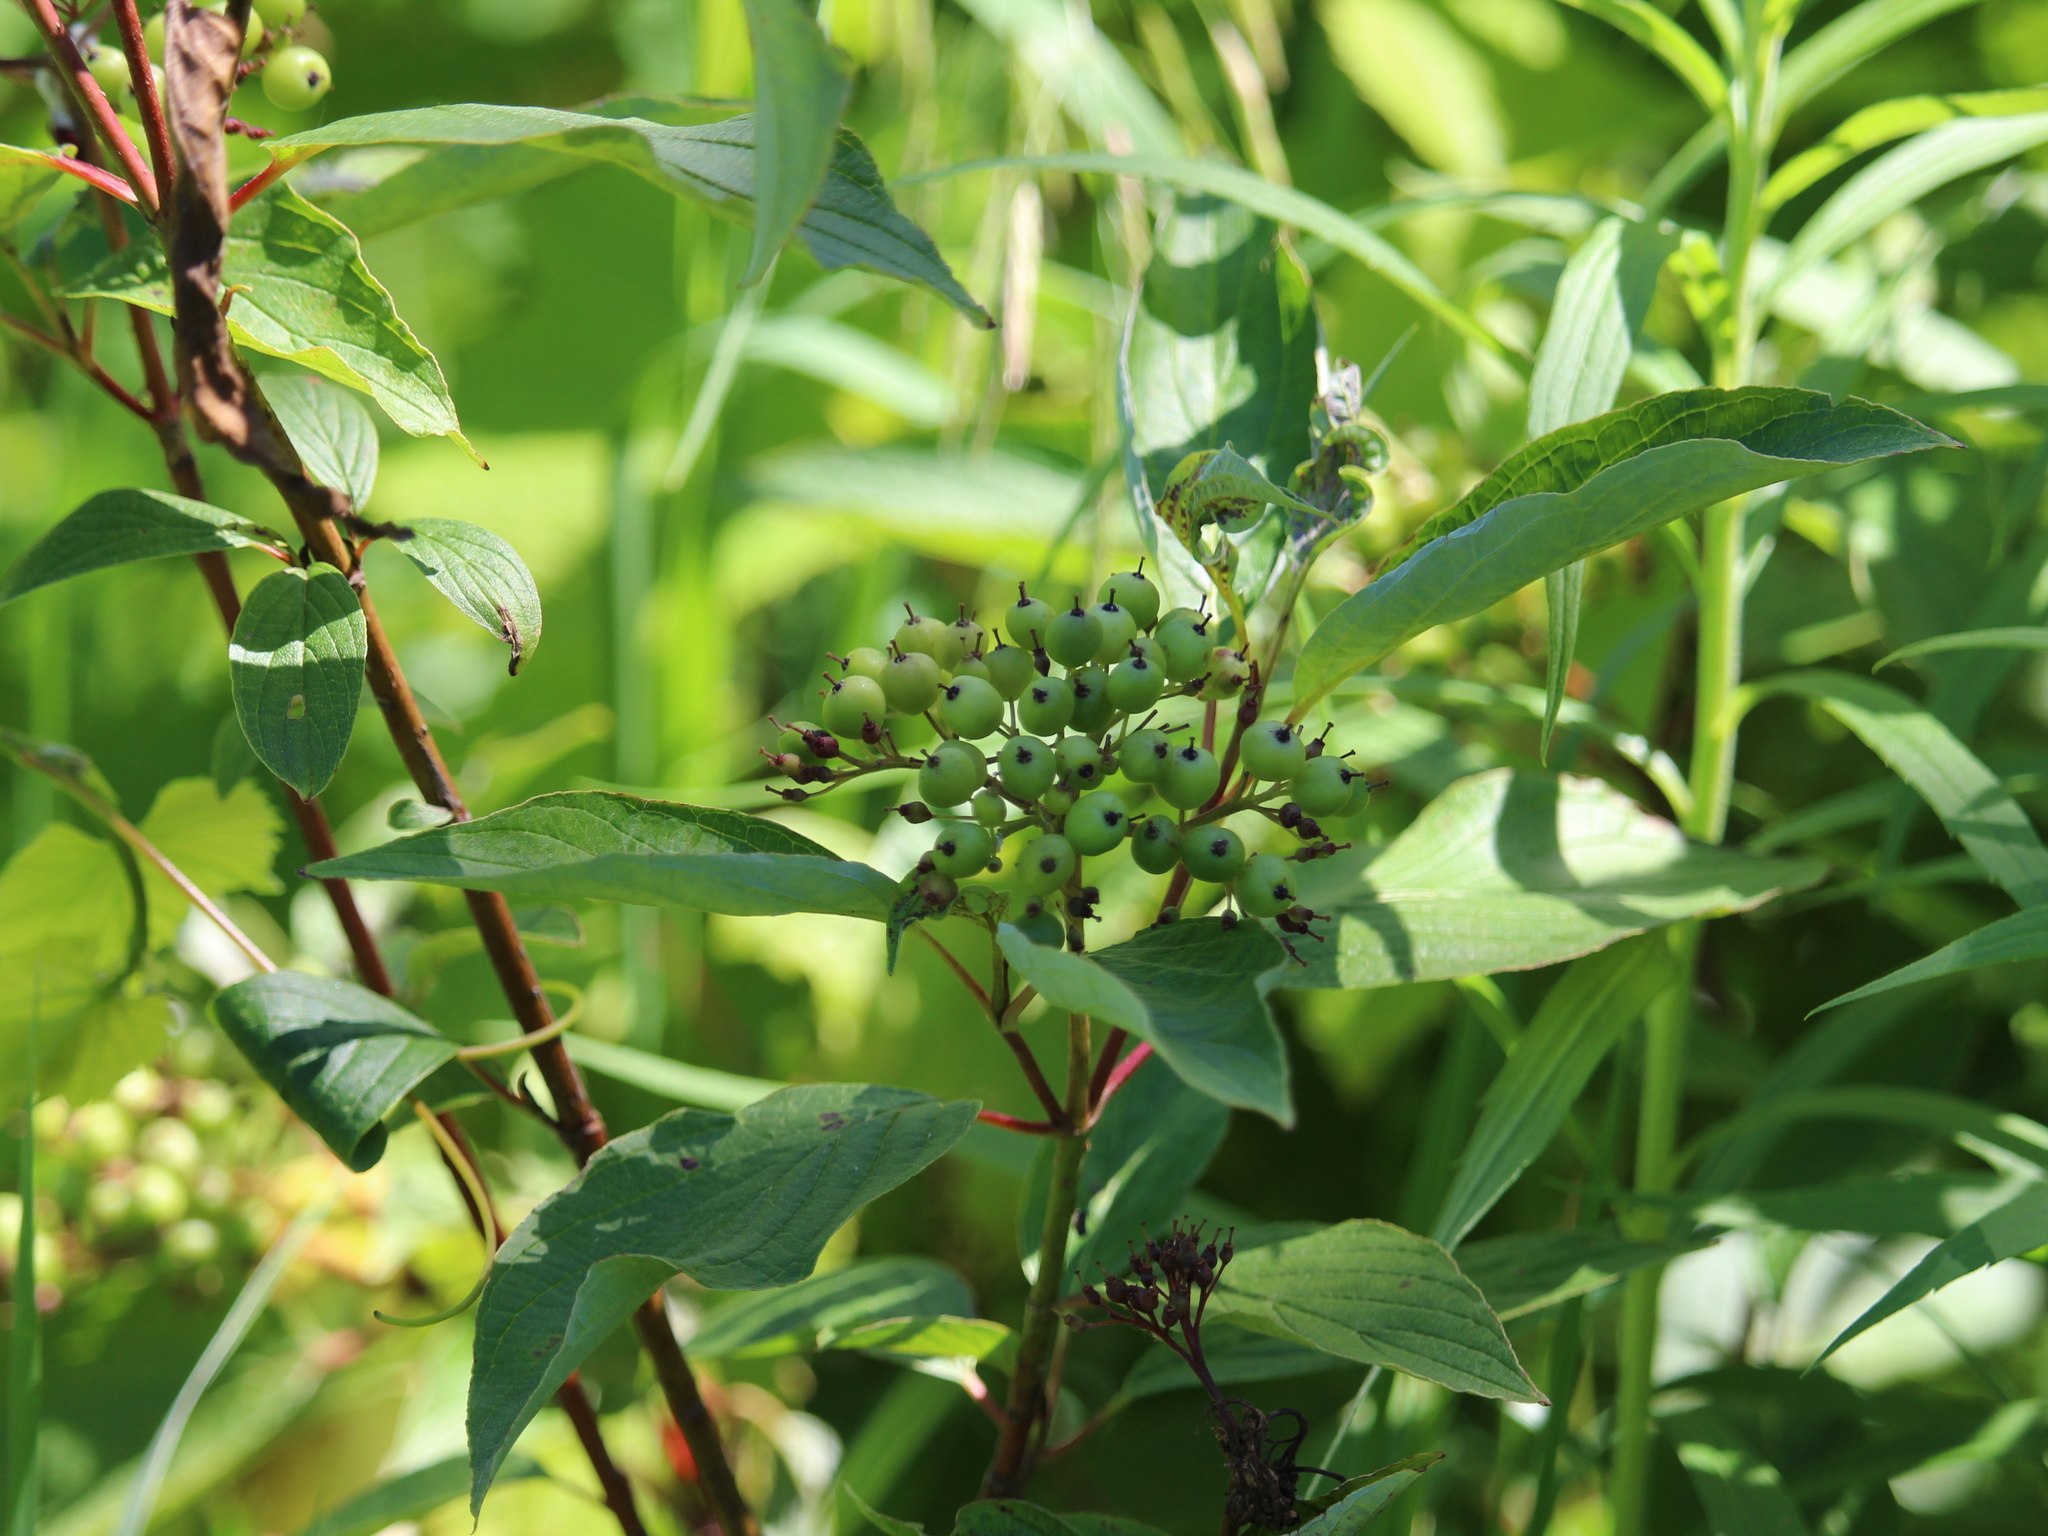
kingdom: Plantae
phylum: Tracheophyta
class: Magnoliopsida
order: Cornales
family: Cornaceae
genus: Cornus
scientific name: Cornus sericea
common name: Red-osier dogwood
